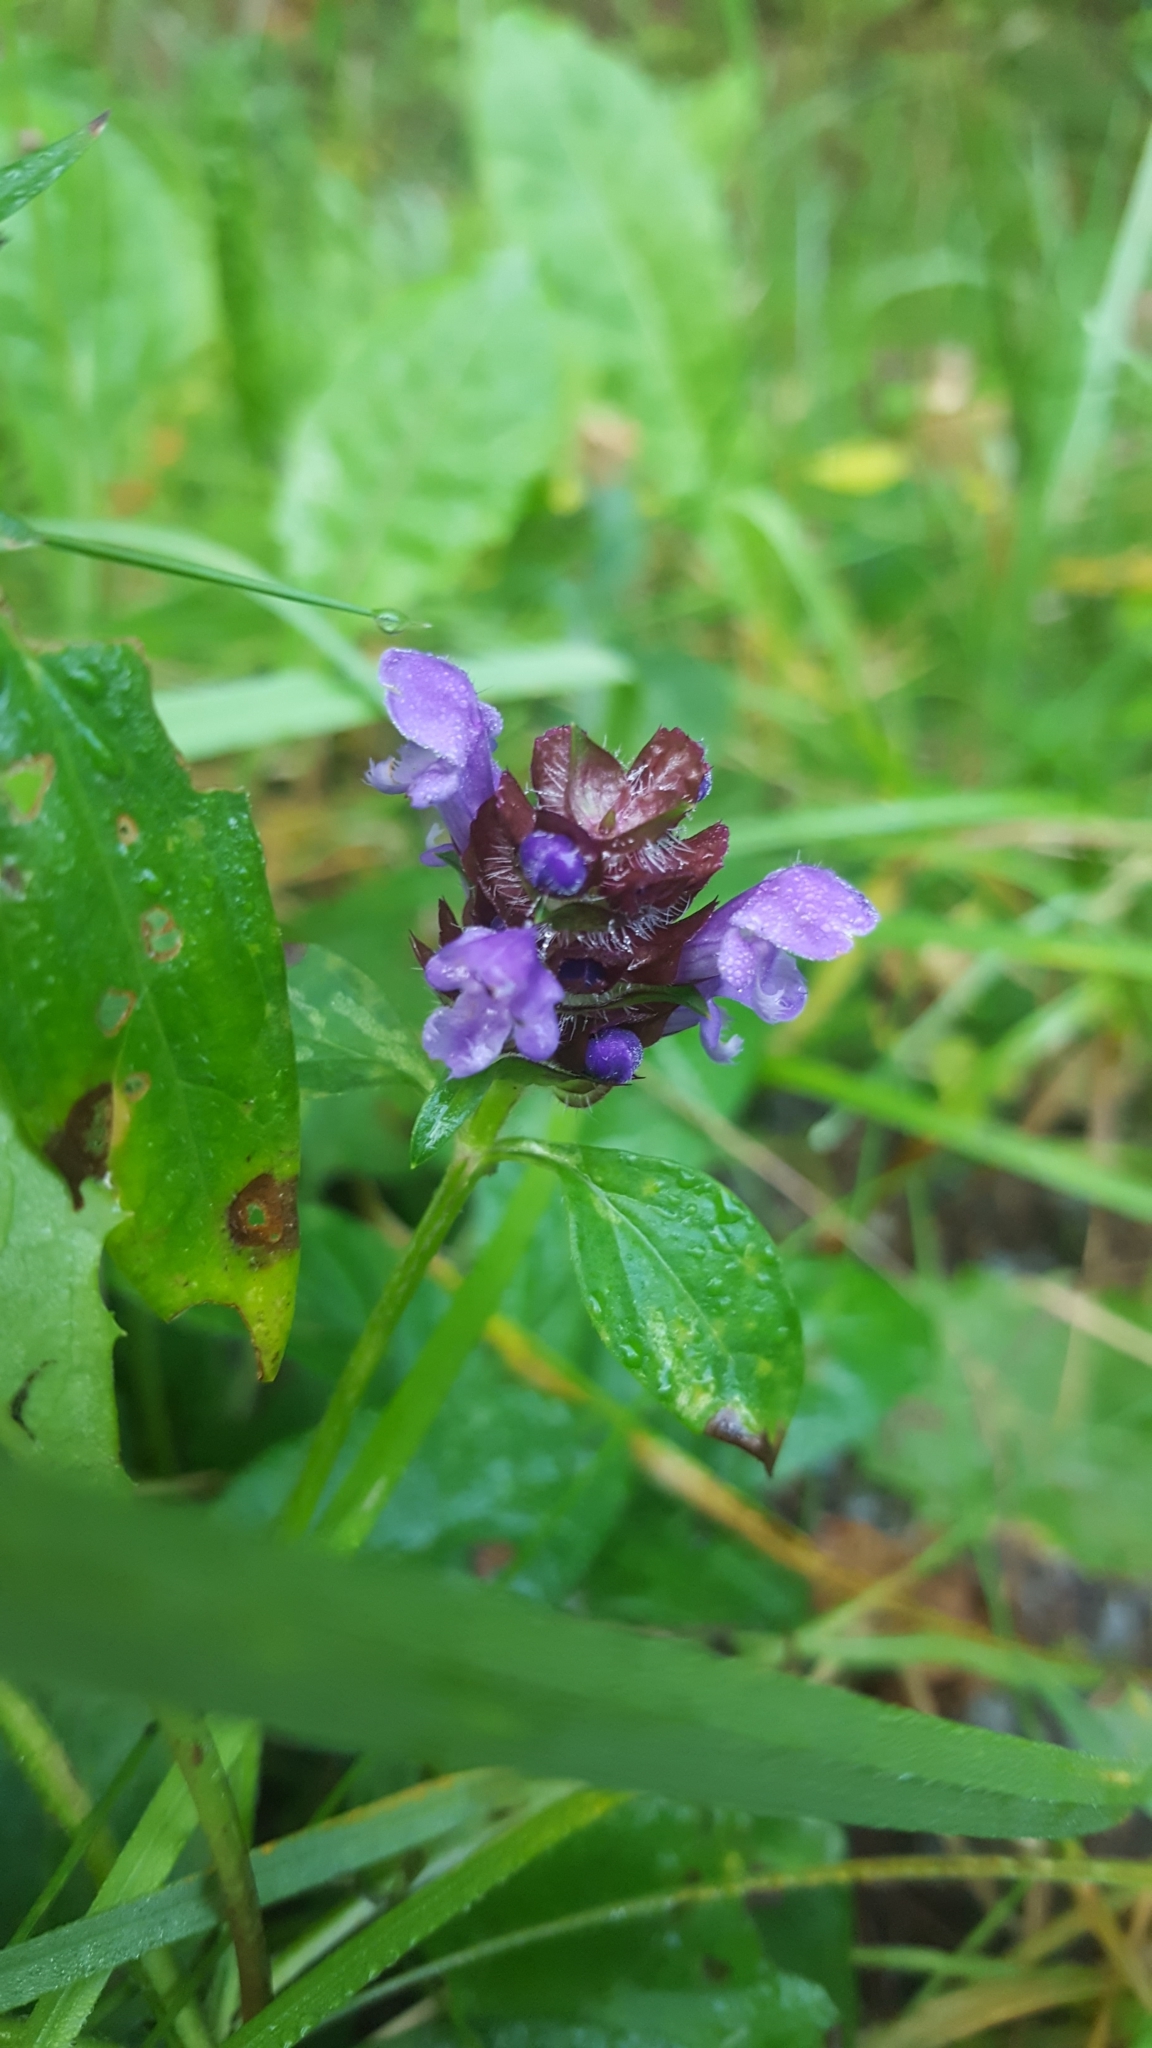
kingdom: Plantae
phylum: Tracheophyta
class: Magnoliopsida
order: Lamiales
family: Lamiaceae
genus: Prunella
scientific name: Prunella vulgaris
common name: Heal-all
